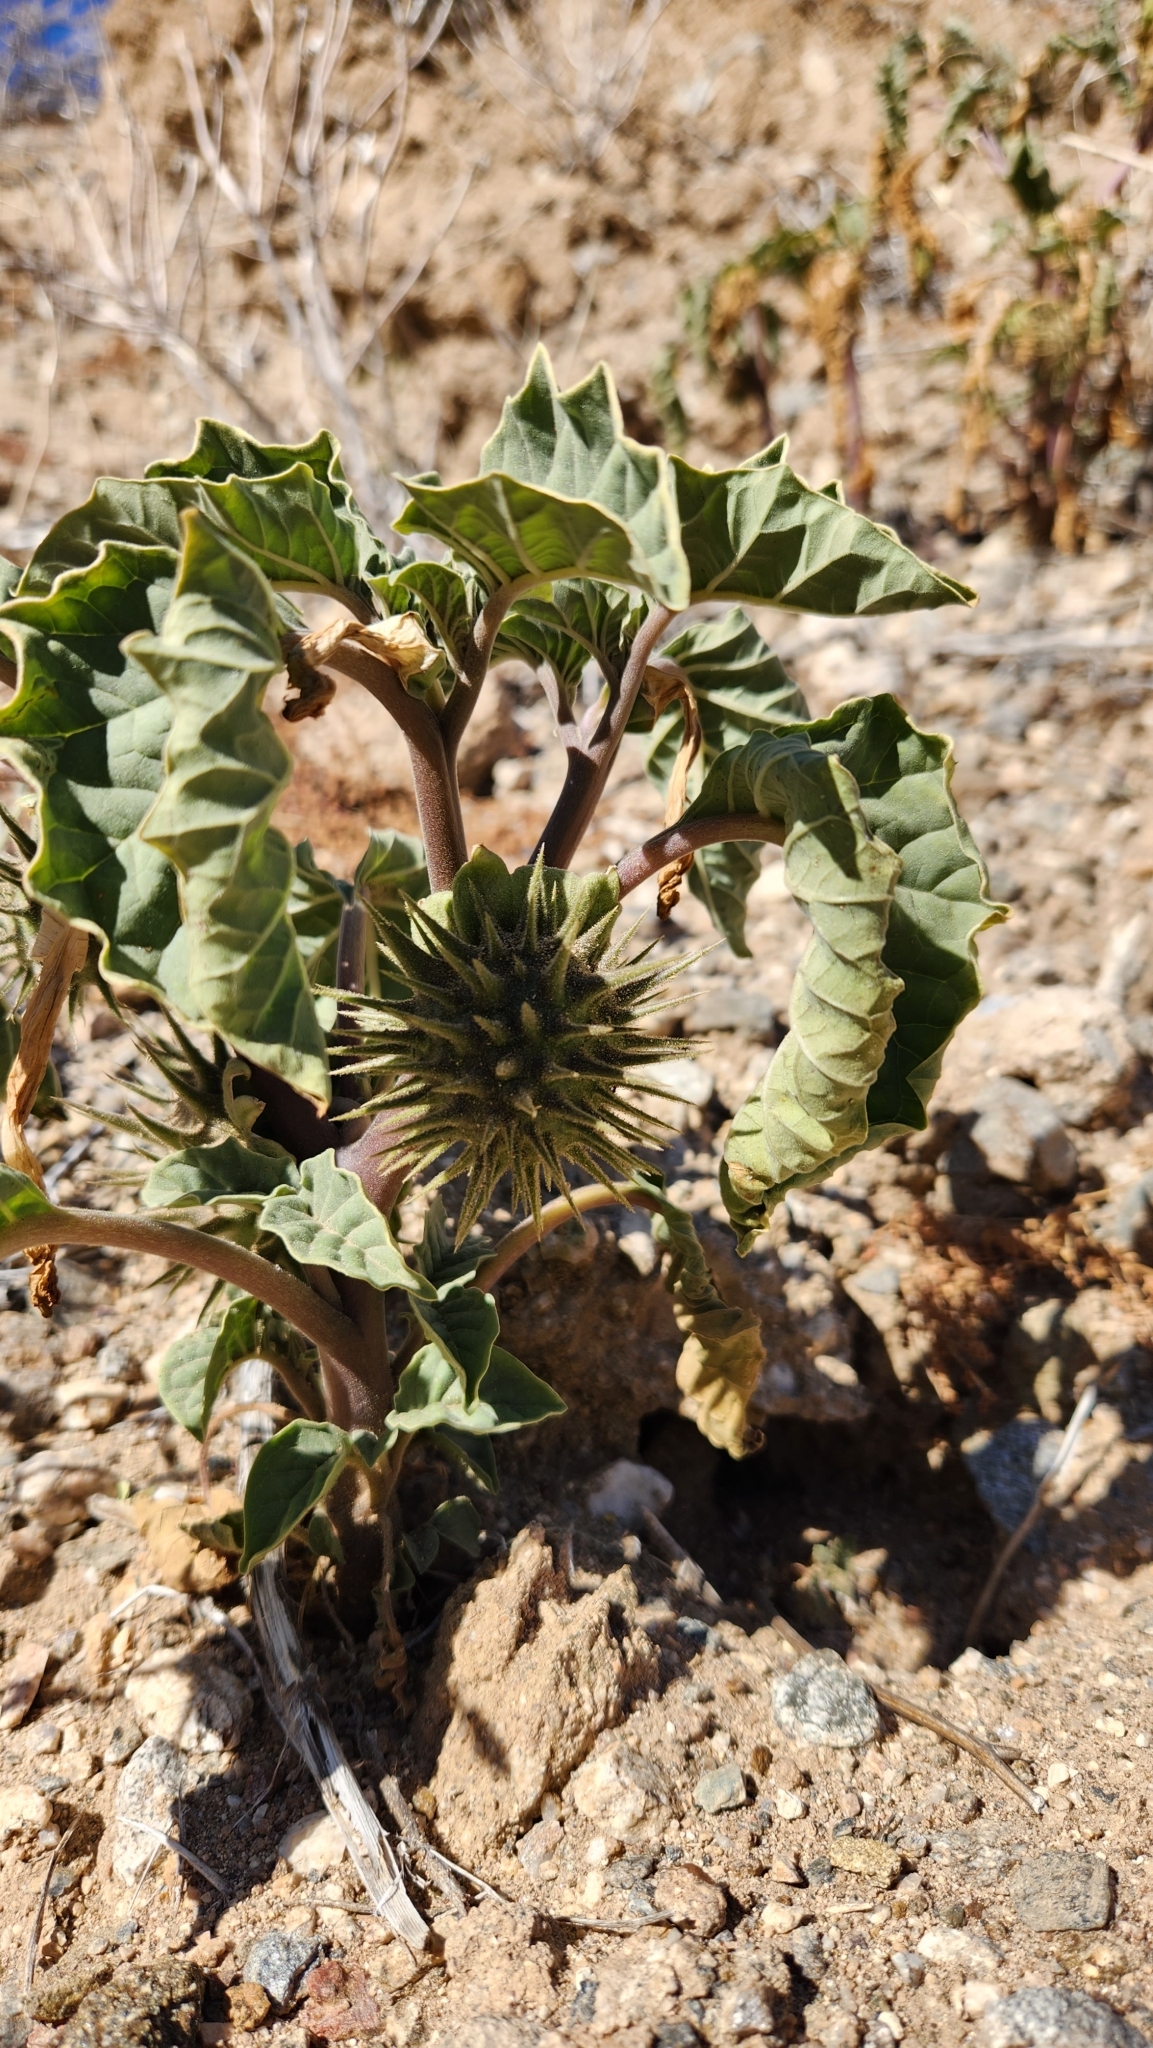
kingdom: Plantae
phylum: Tracheophyta
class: Magnoliopsida
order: Solanales
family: Solanaceae
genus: Datura
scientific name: Datura discolor
